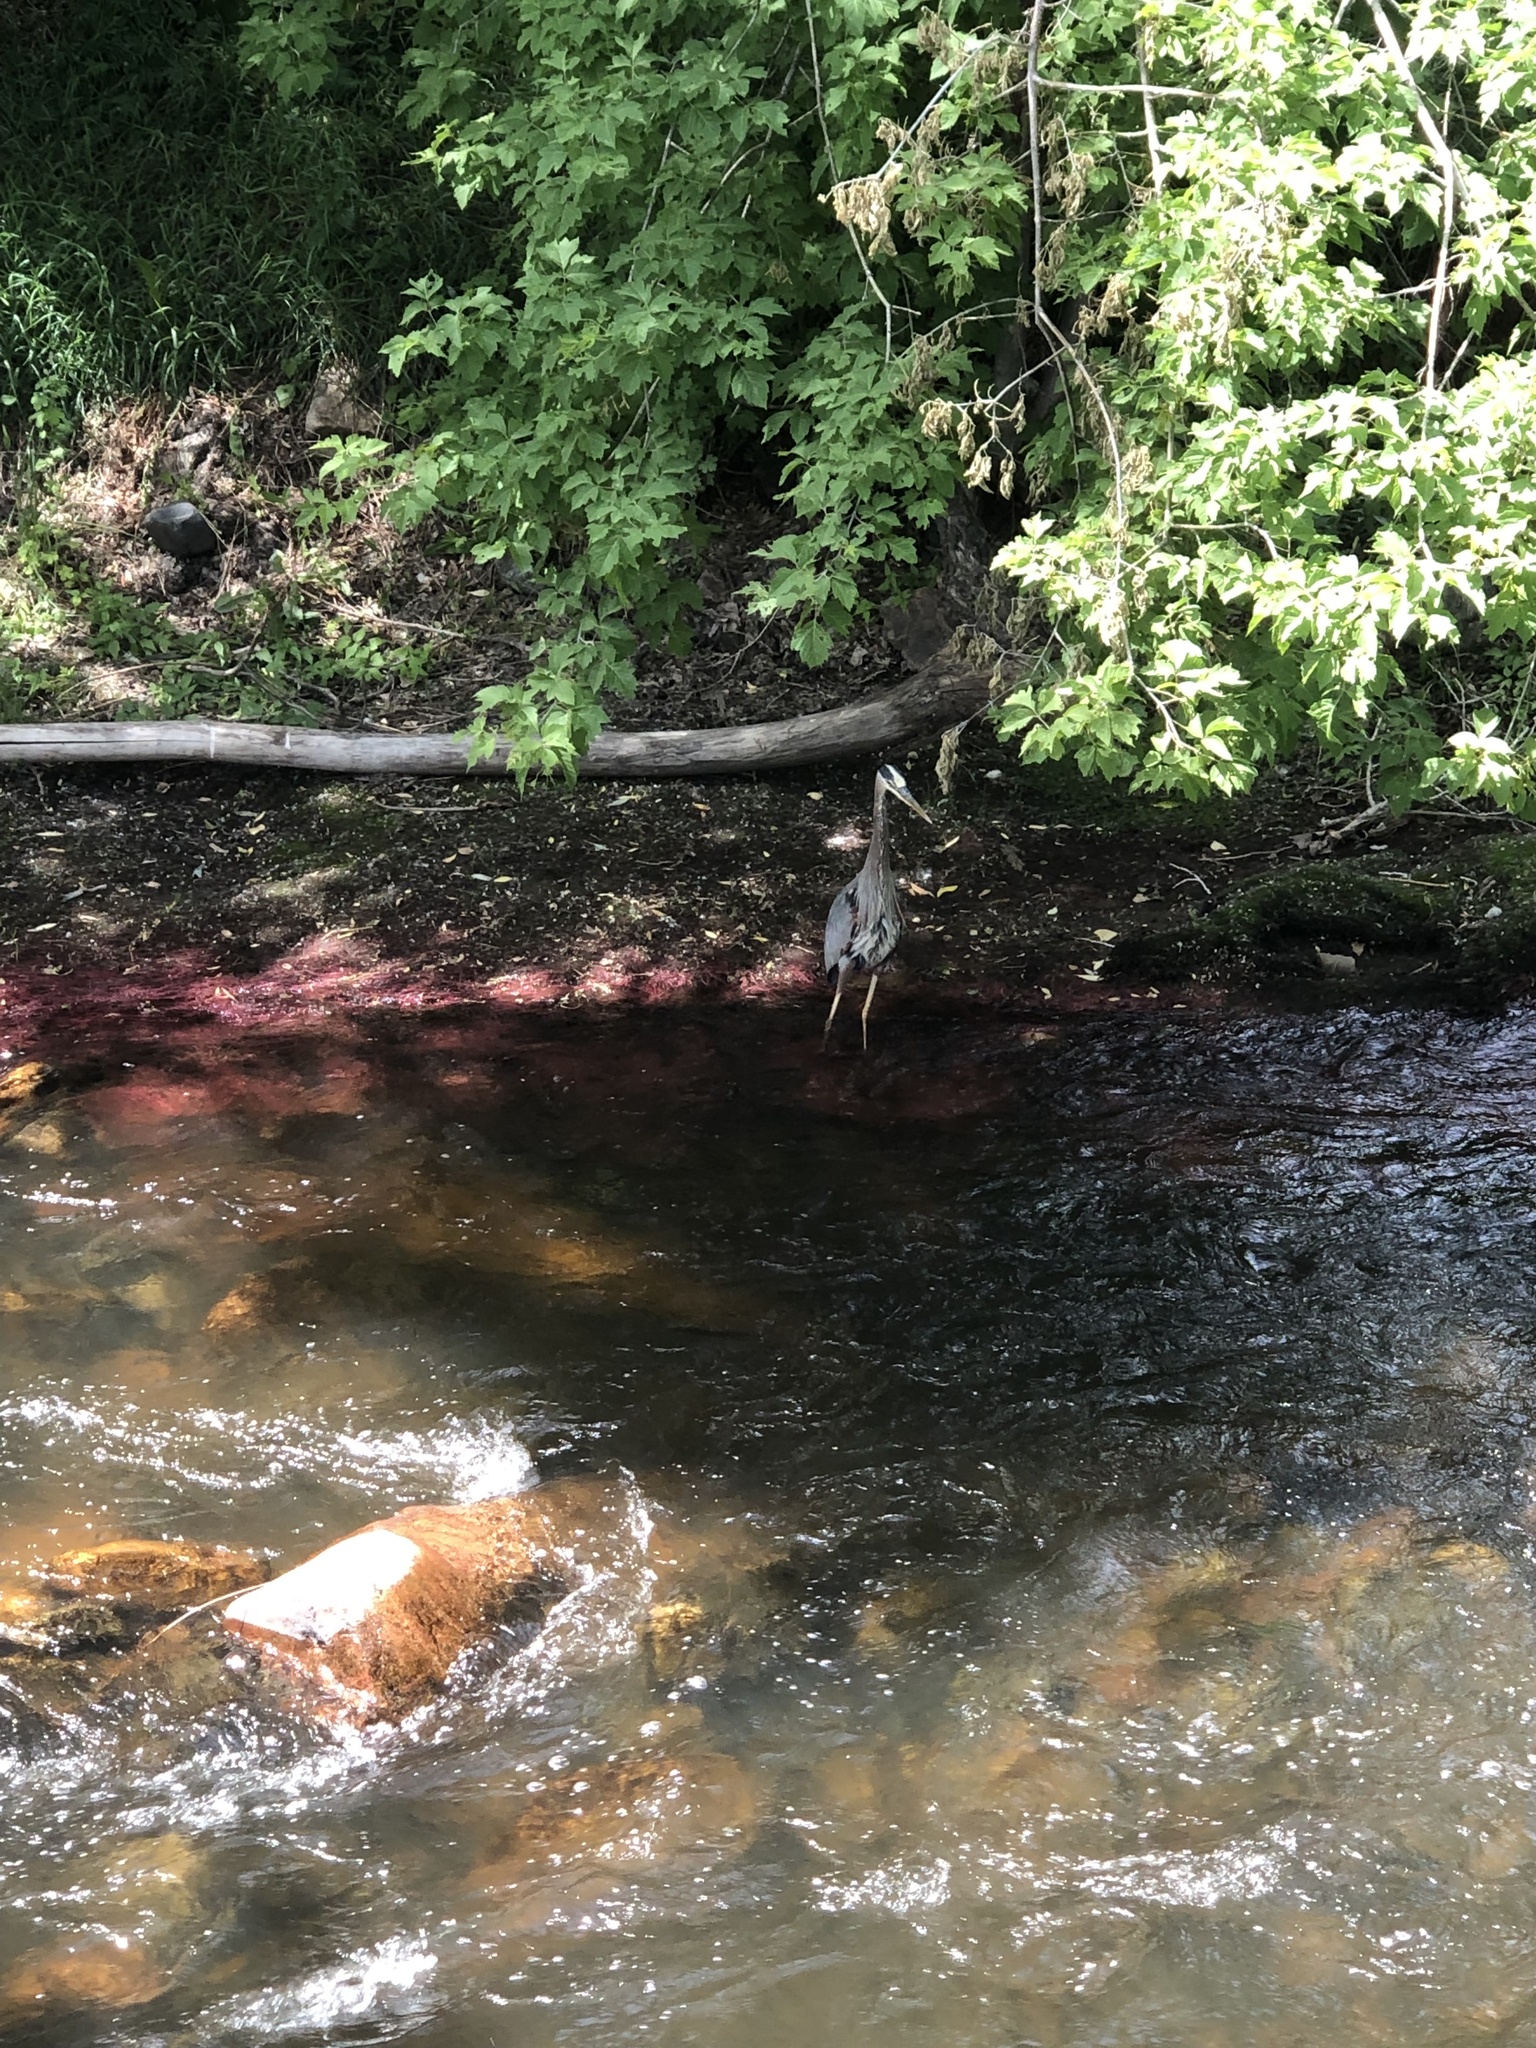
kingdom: Animalia
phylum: Chordata
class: Aves
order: Pelecaniformes
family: Ardeidae
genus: Ardea
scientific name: Ardea herodias
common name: Great blue heron
